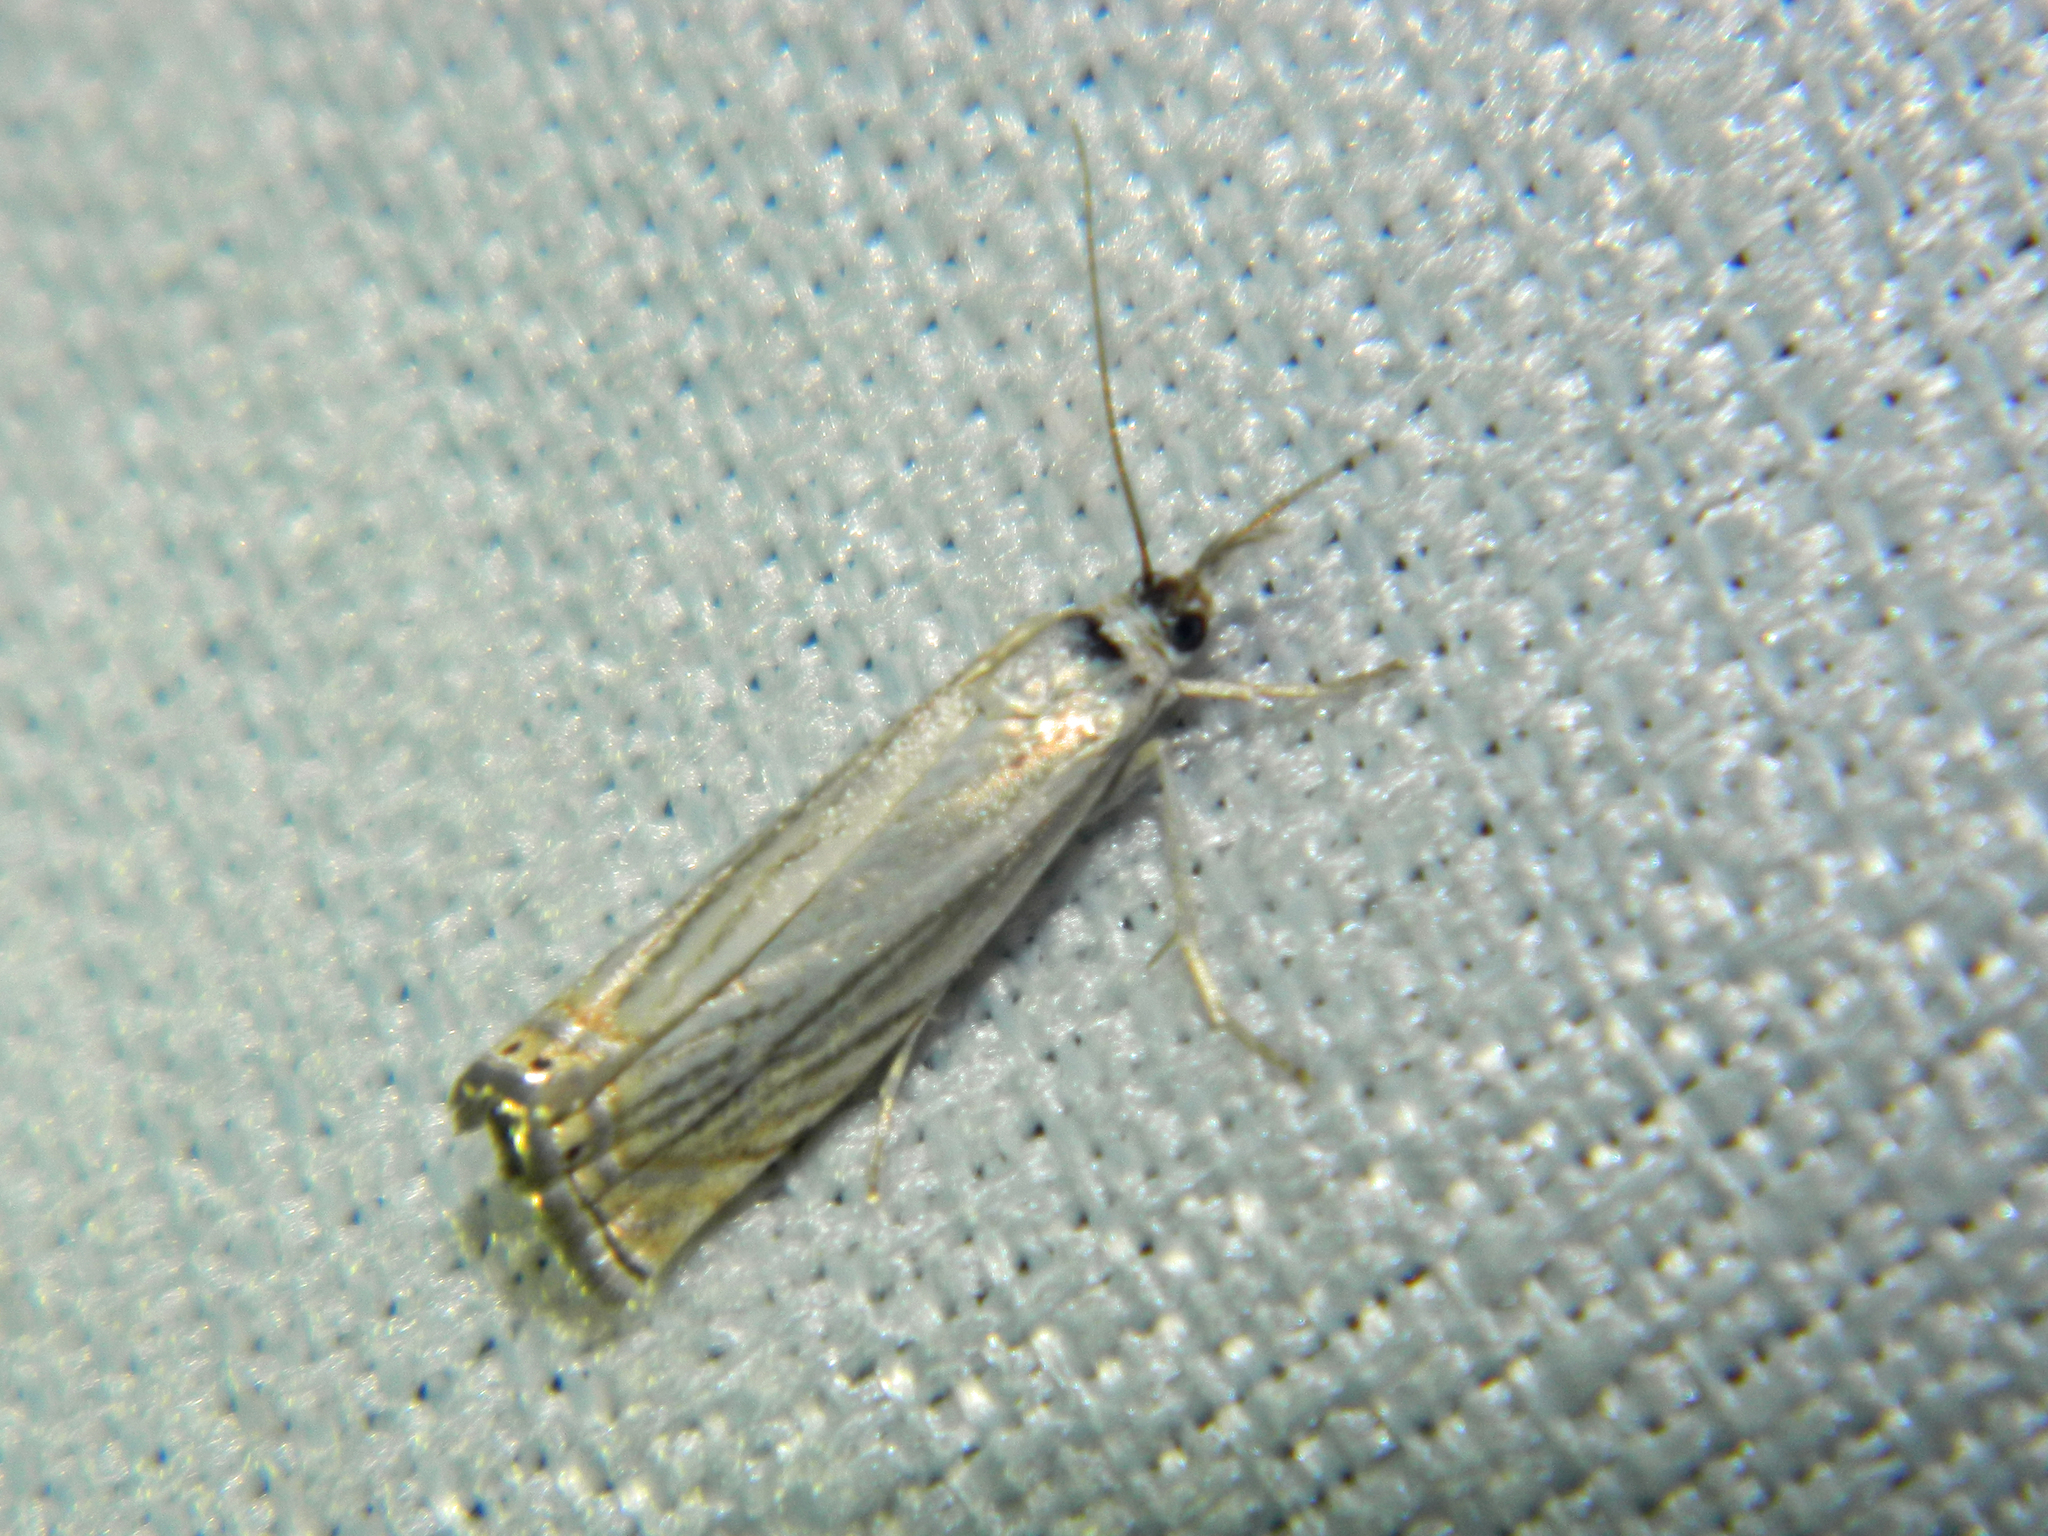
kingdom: Animalia
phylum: Arthropoda
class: Insecta
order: Lepidoptera
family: Crambidae
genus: Chrysoteuchia
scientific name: Chrysoteuchia topiarius
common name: Topiary grass-veneer
